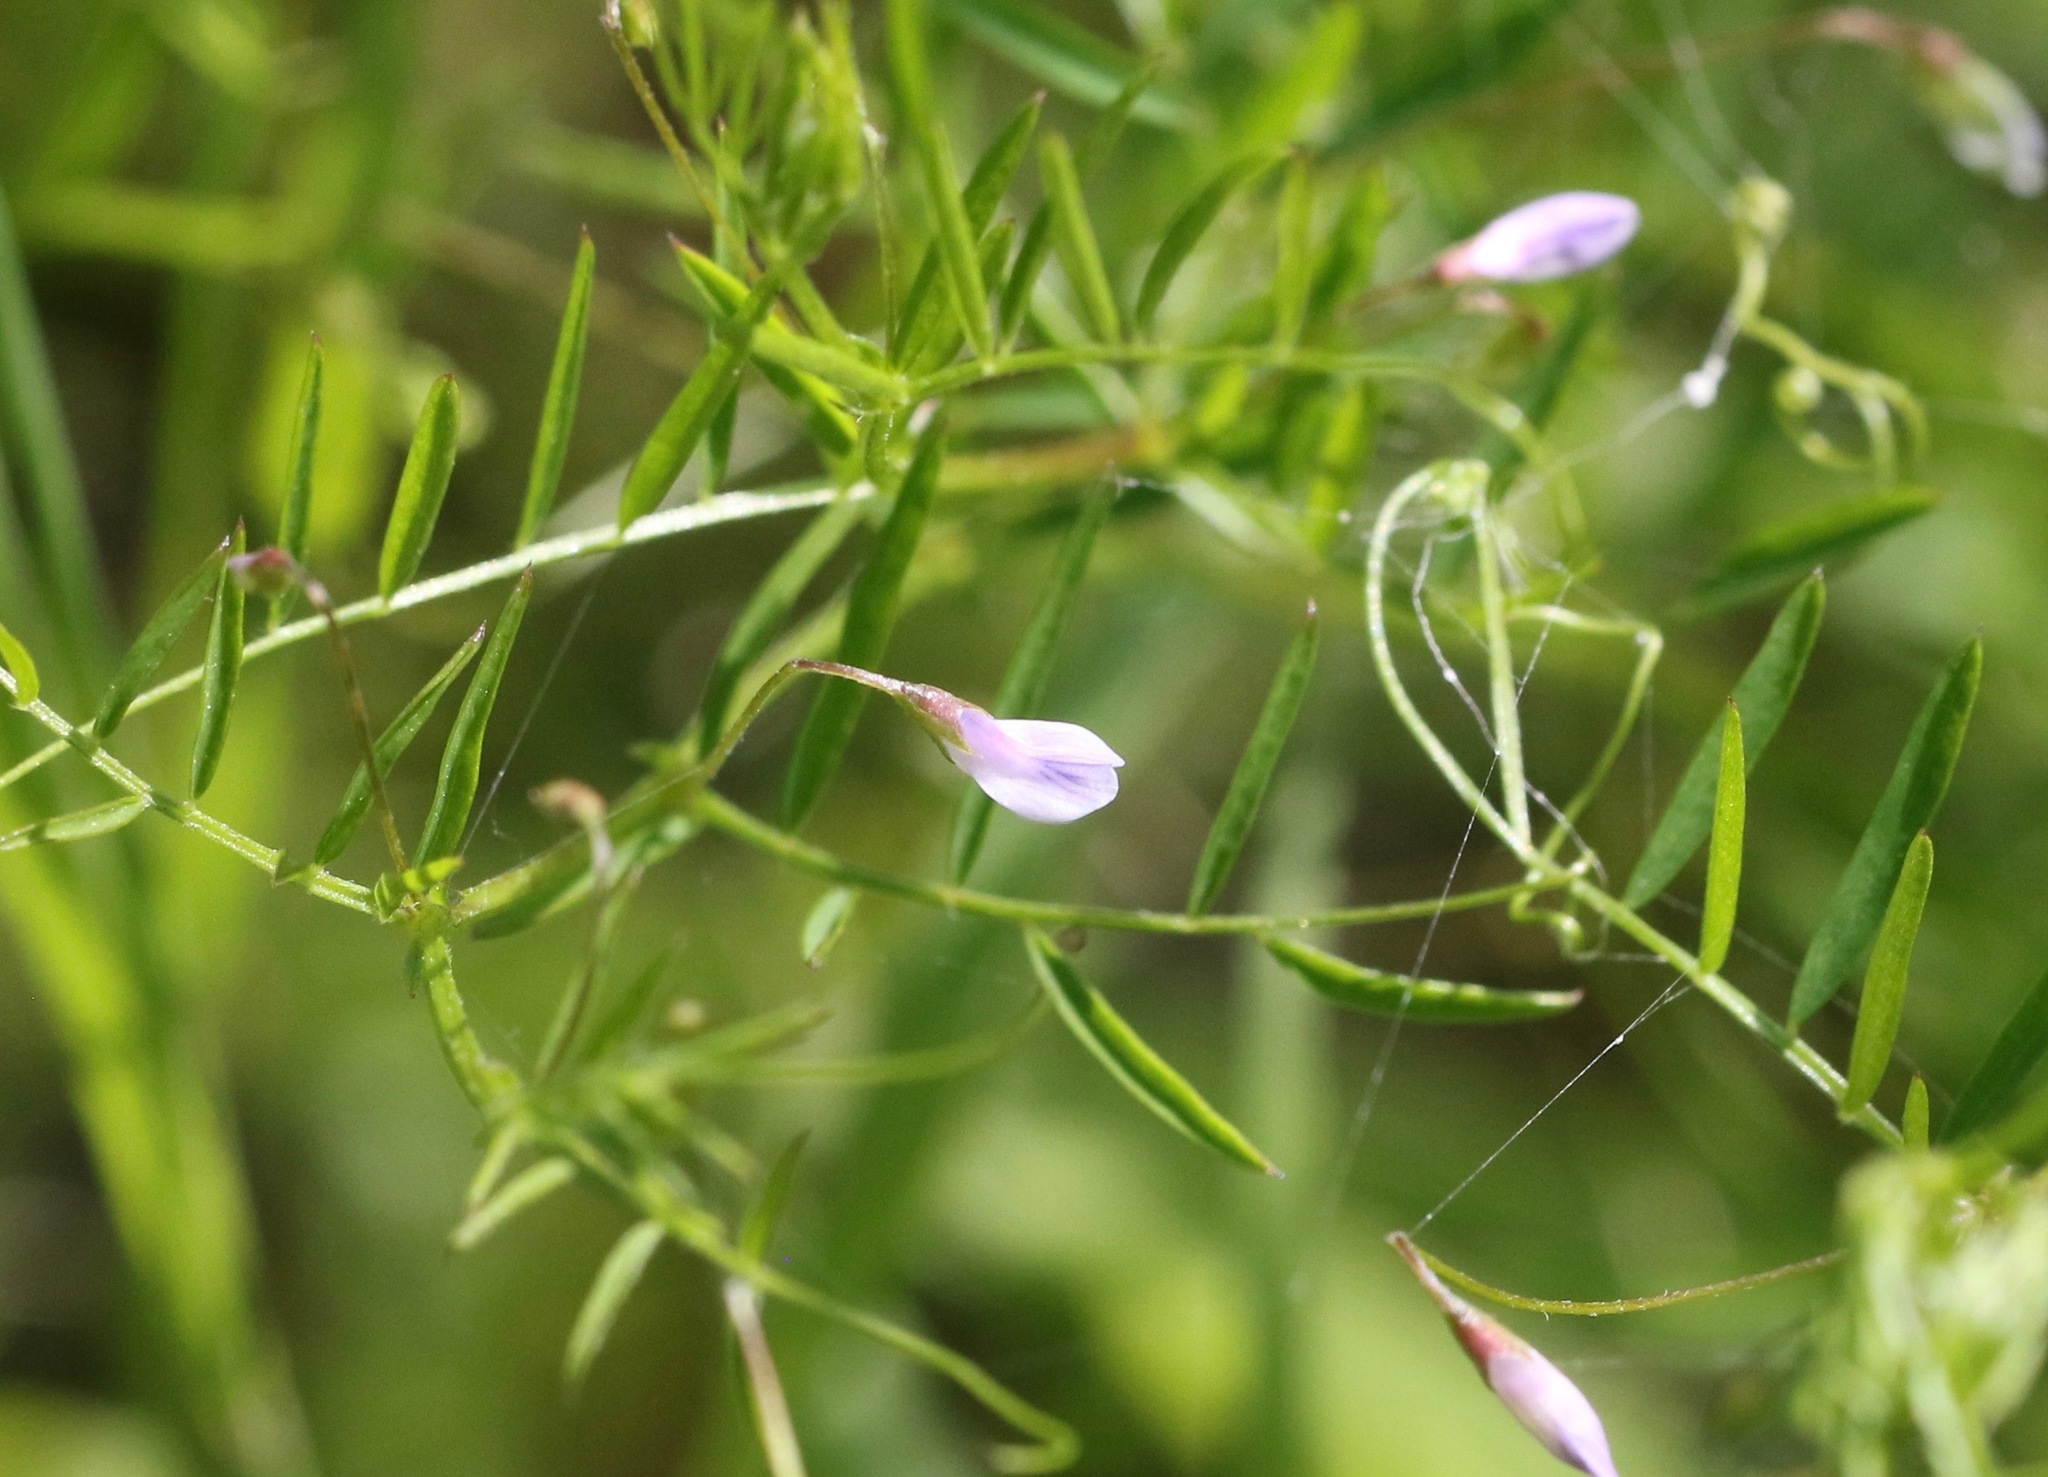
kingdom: Plantae
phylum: Tracheophyta
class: Magnoliopsida
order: Fabales
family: Fabaceae
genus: Vicia
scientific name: Vicia tetrasperma
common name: Smooth tare
